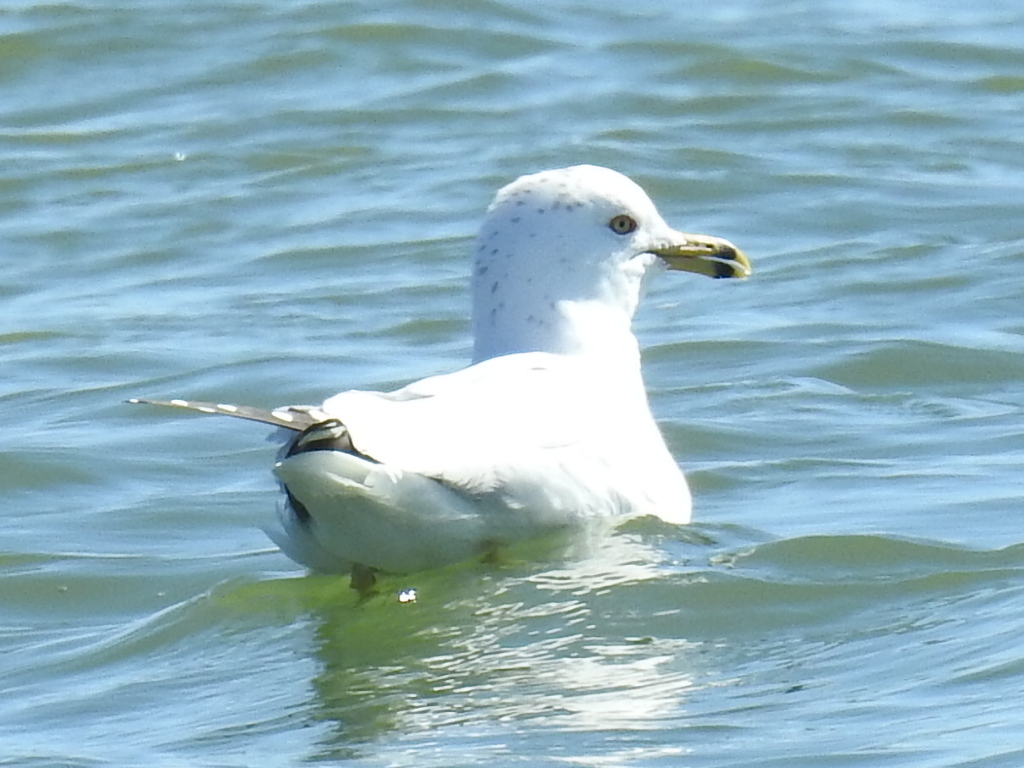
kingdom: Animalia
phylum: Chordata
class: Aves
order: Charadriiformes
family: Laridae
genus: Larus
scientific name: Larus delawarensis
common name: Ring-billed gull
